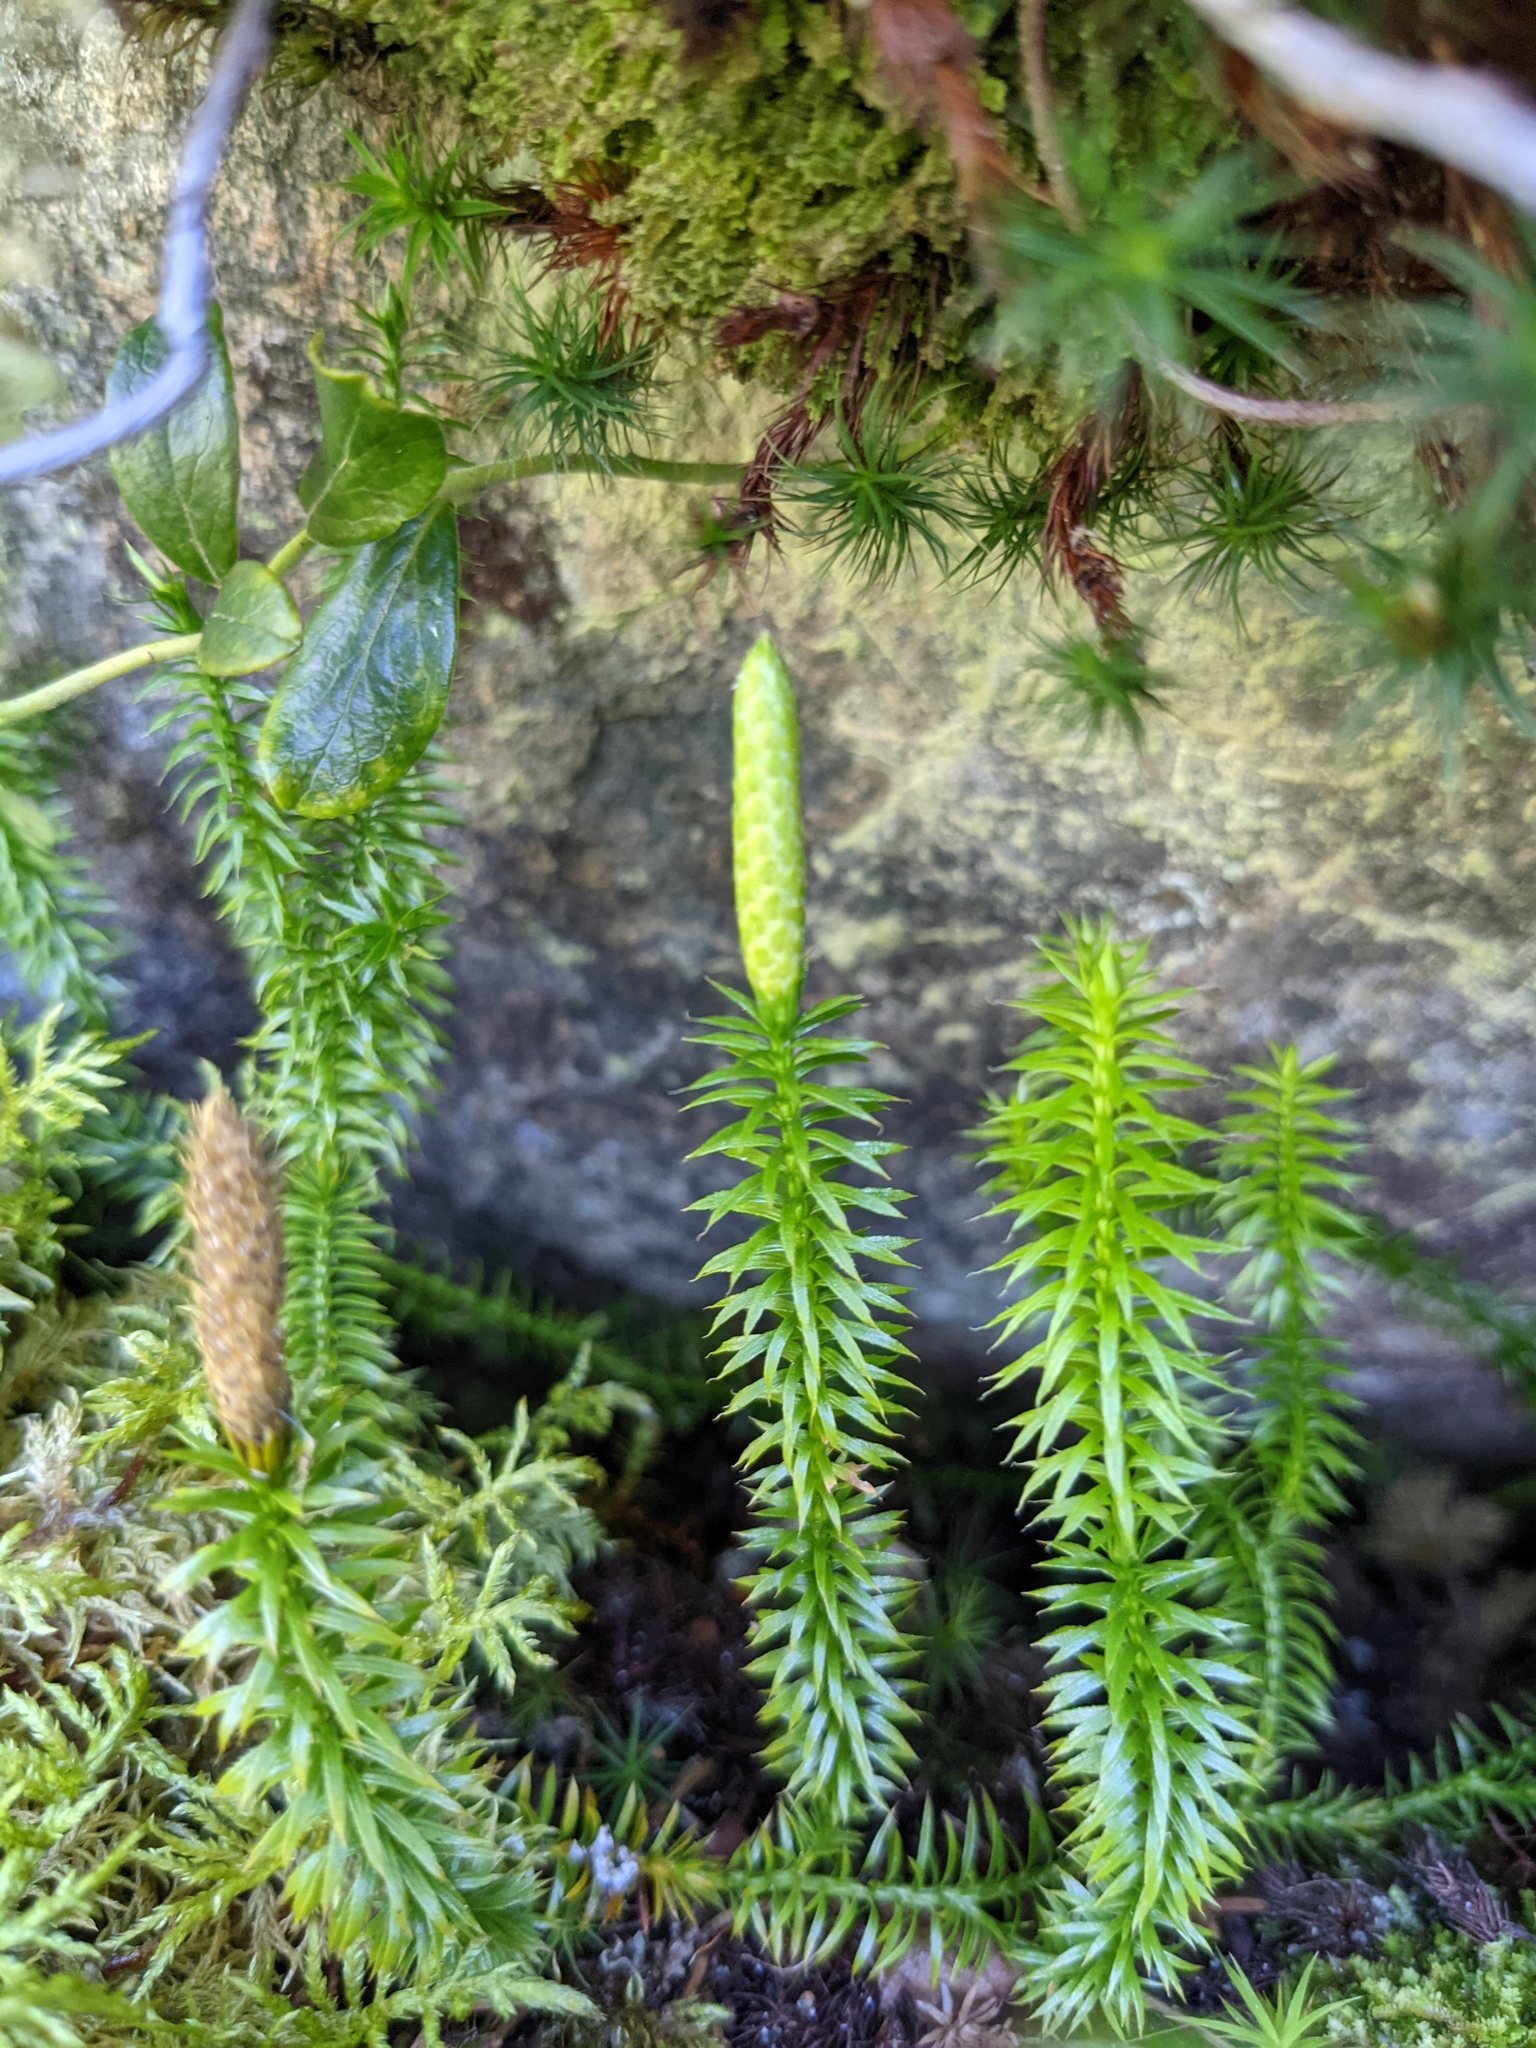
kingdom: Plantae
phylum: Tracheophyta
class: Lycopodiopsida
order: Lycopodiales
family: Lycopodiaceae
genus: Spinulum
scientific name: Spinulum annotinum
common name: Interrupted club-moss
